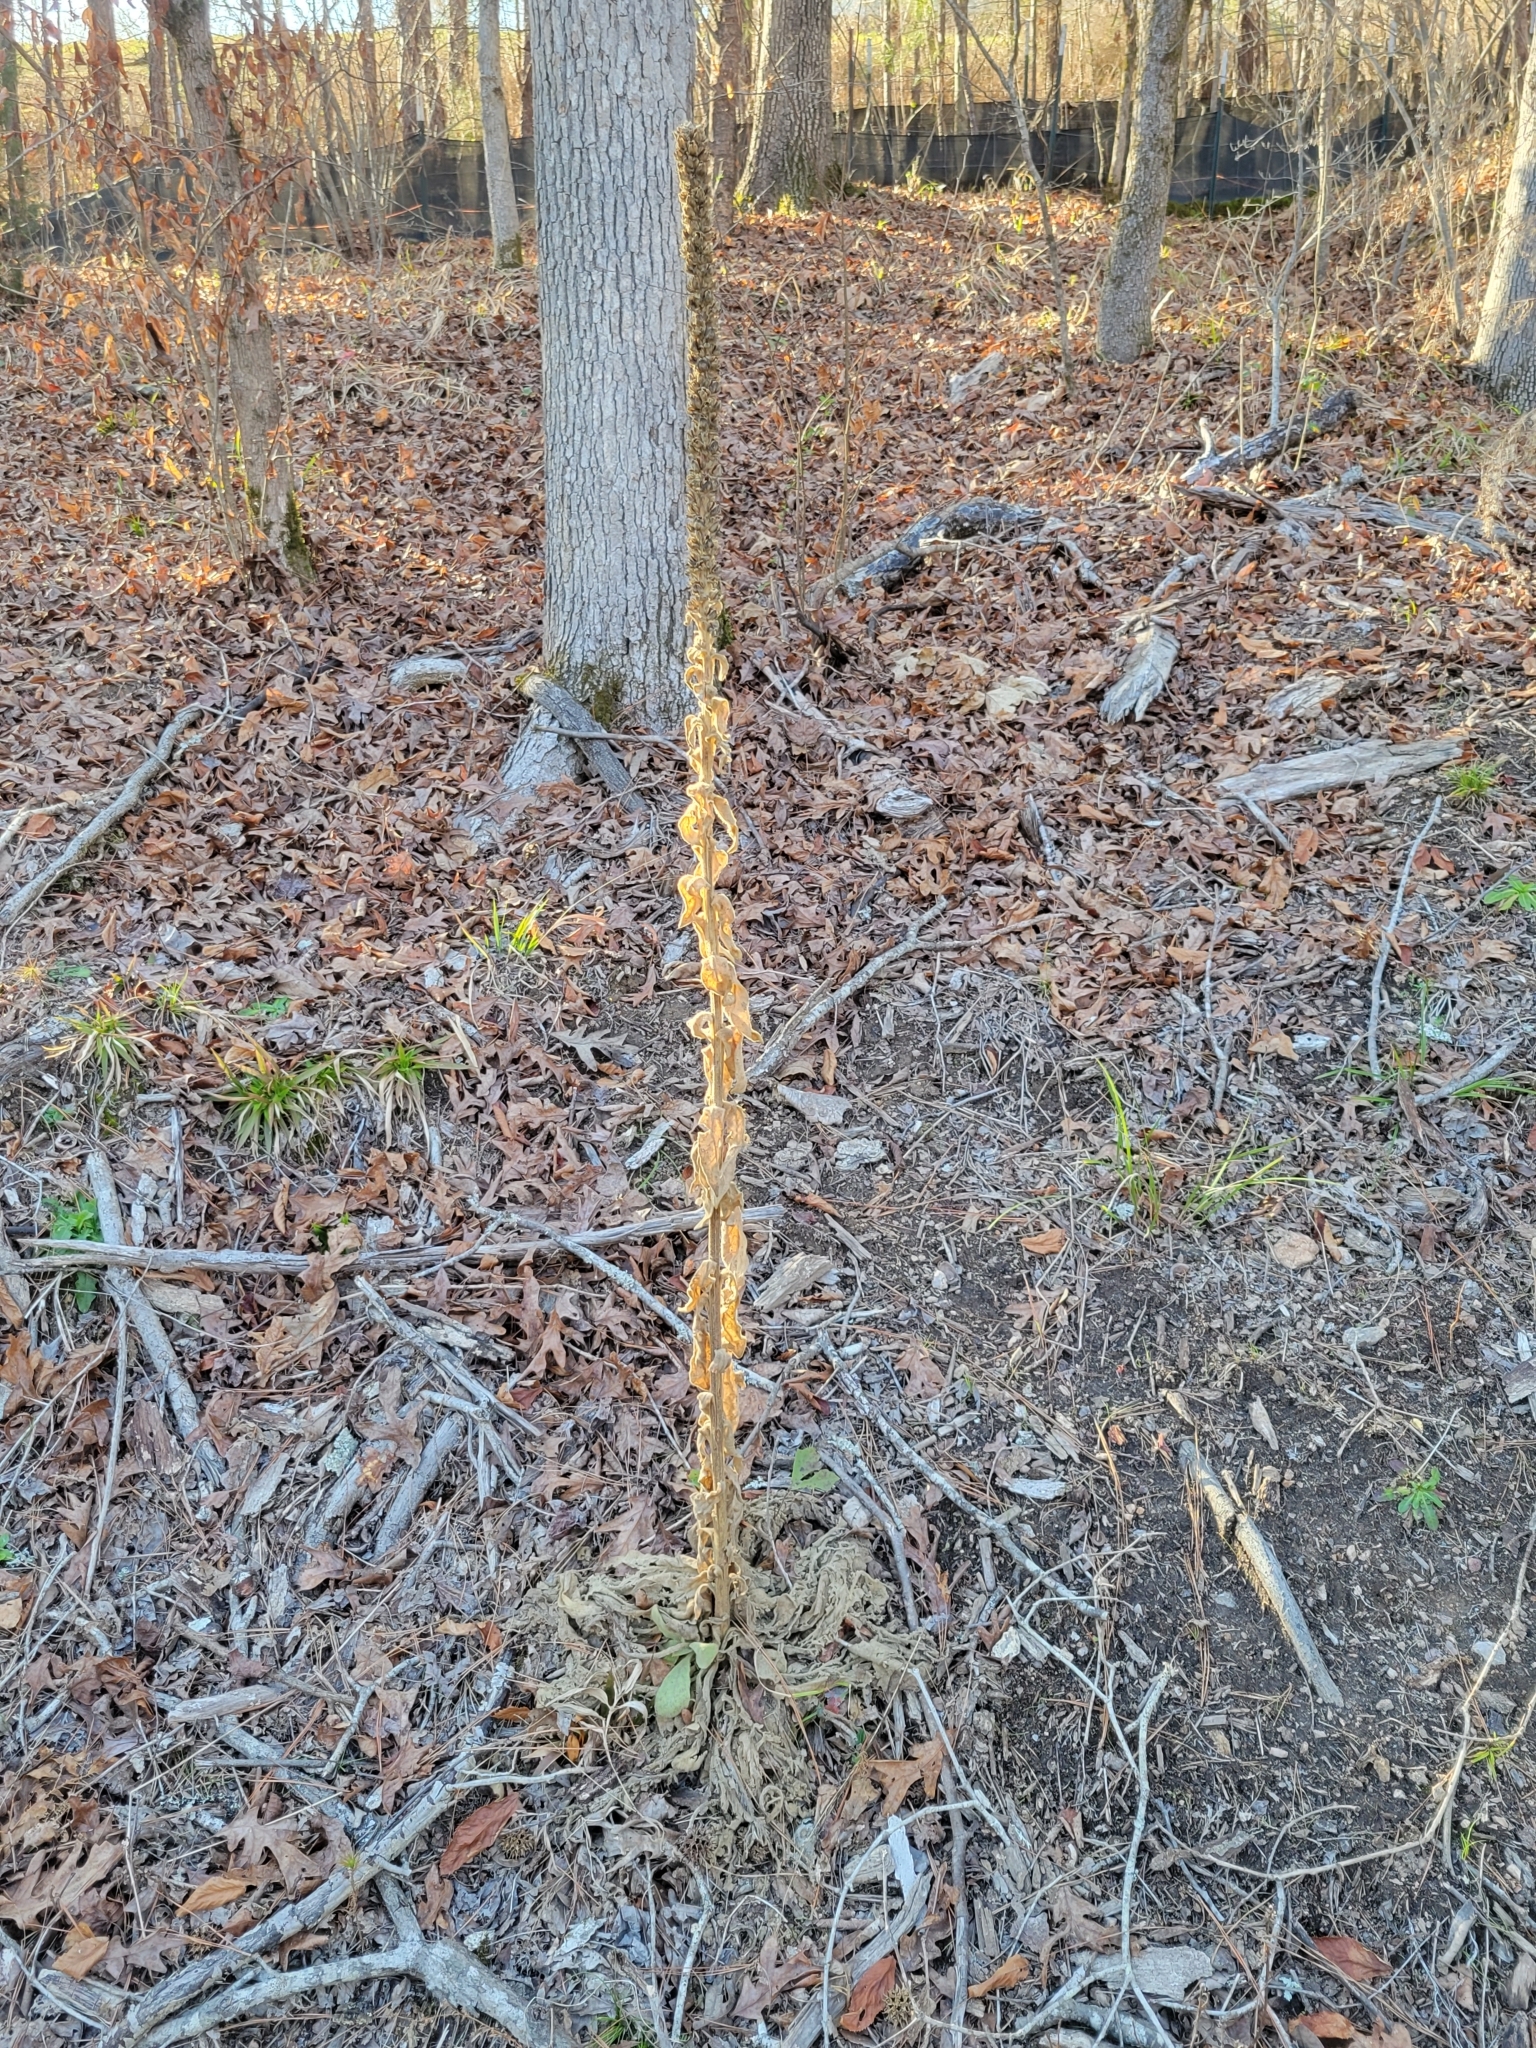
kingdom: Plantae
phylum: Tracheophyta
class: Magnoliopsida
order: Lamiales
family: Scrophulariaceae
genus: Verbascum
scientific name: Verbascum thapsus
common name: Common mullein
